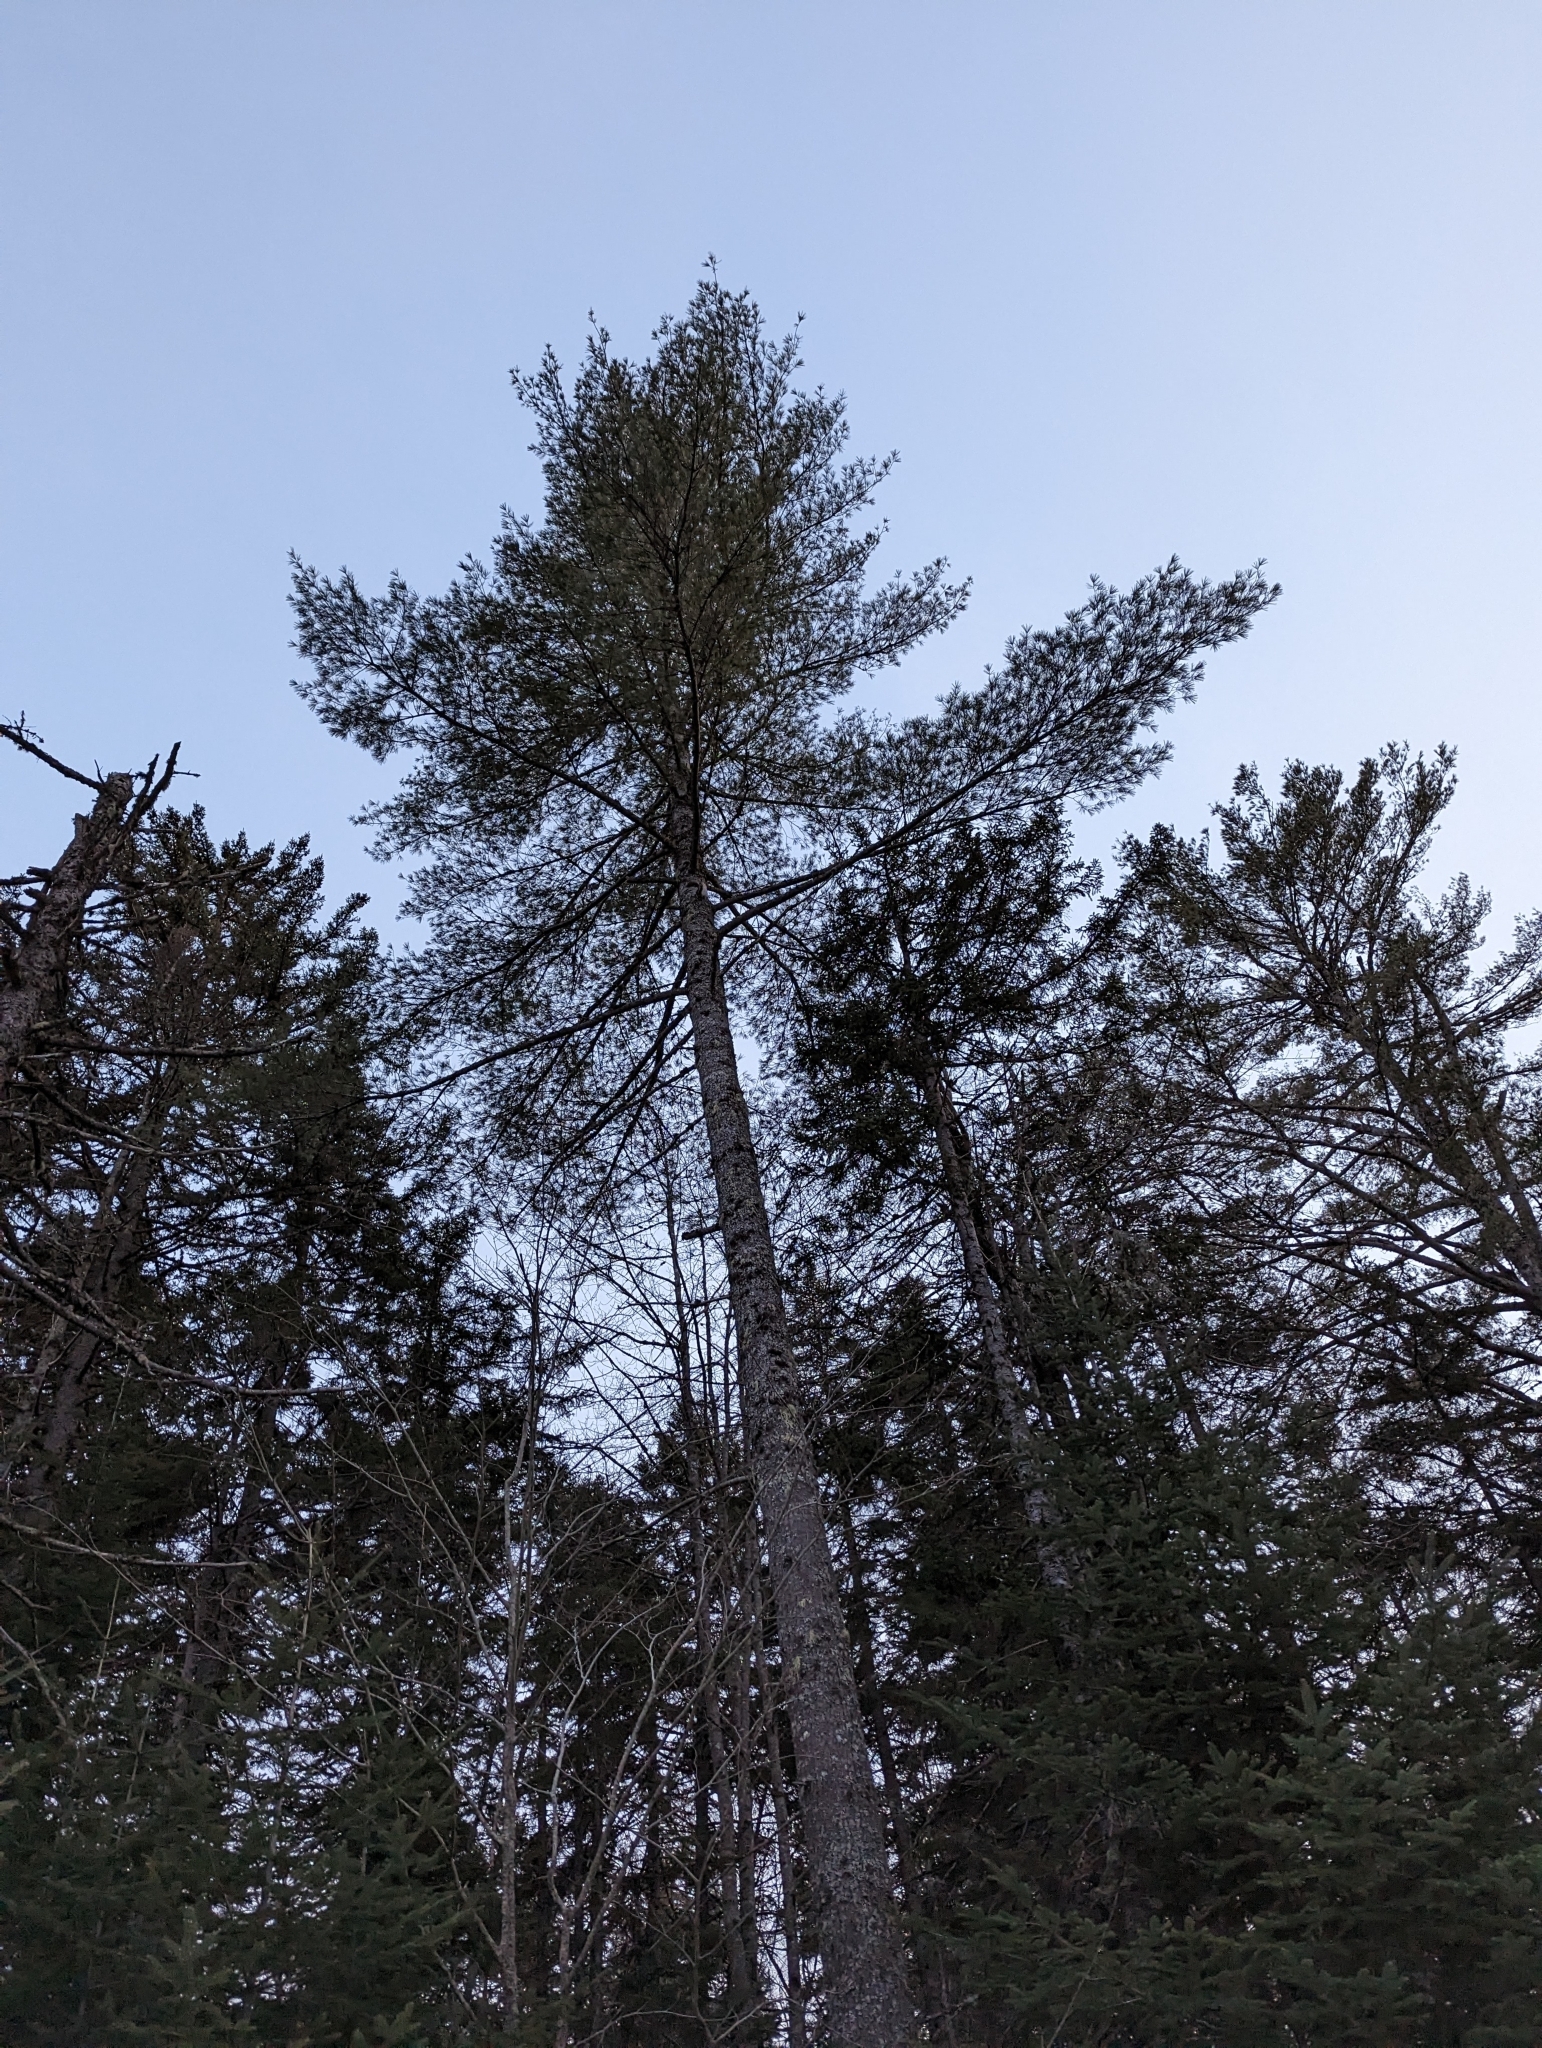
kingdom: Plantae
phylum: Tracheophyta
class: Pinopsida
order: Pinales
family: Pinaceae
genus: Pinus
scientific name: Pinus strobus
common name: Weymouth pine
